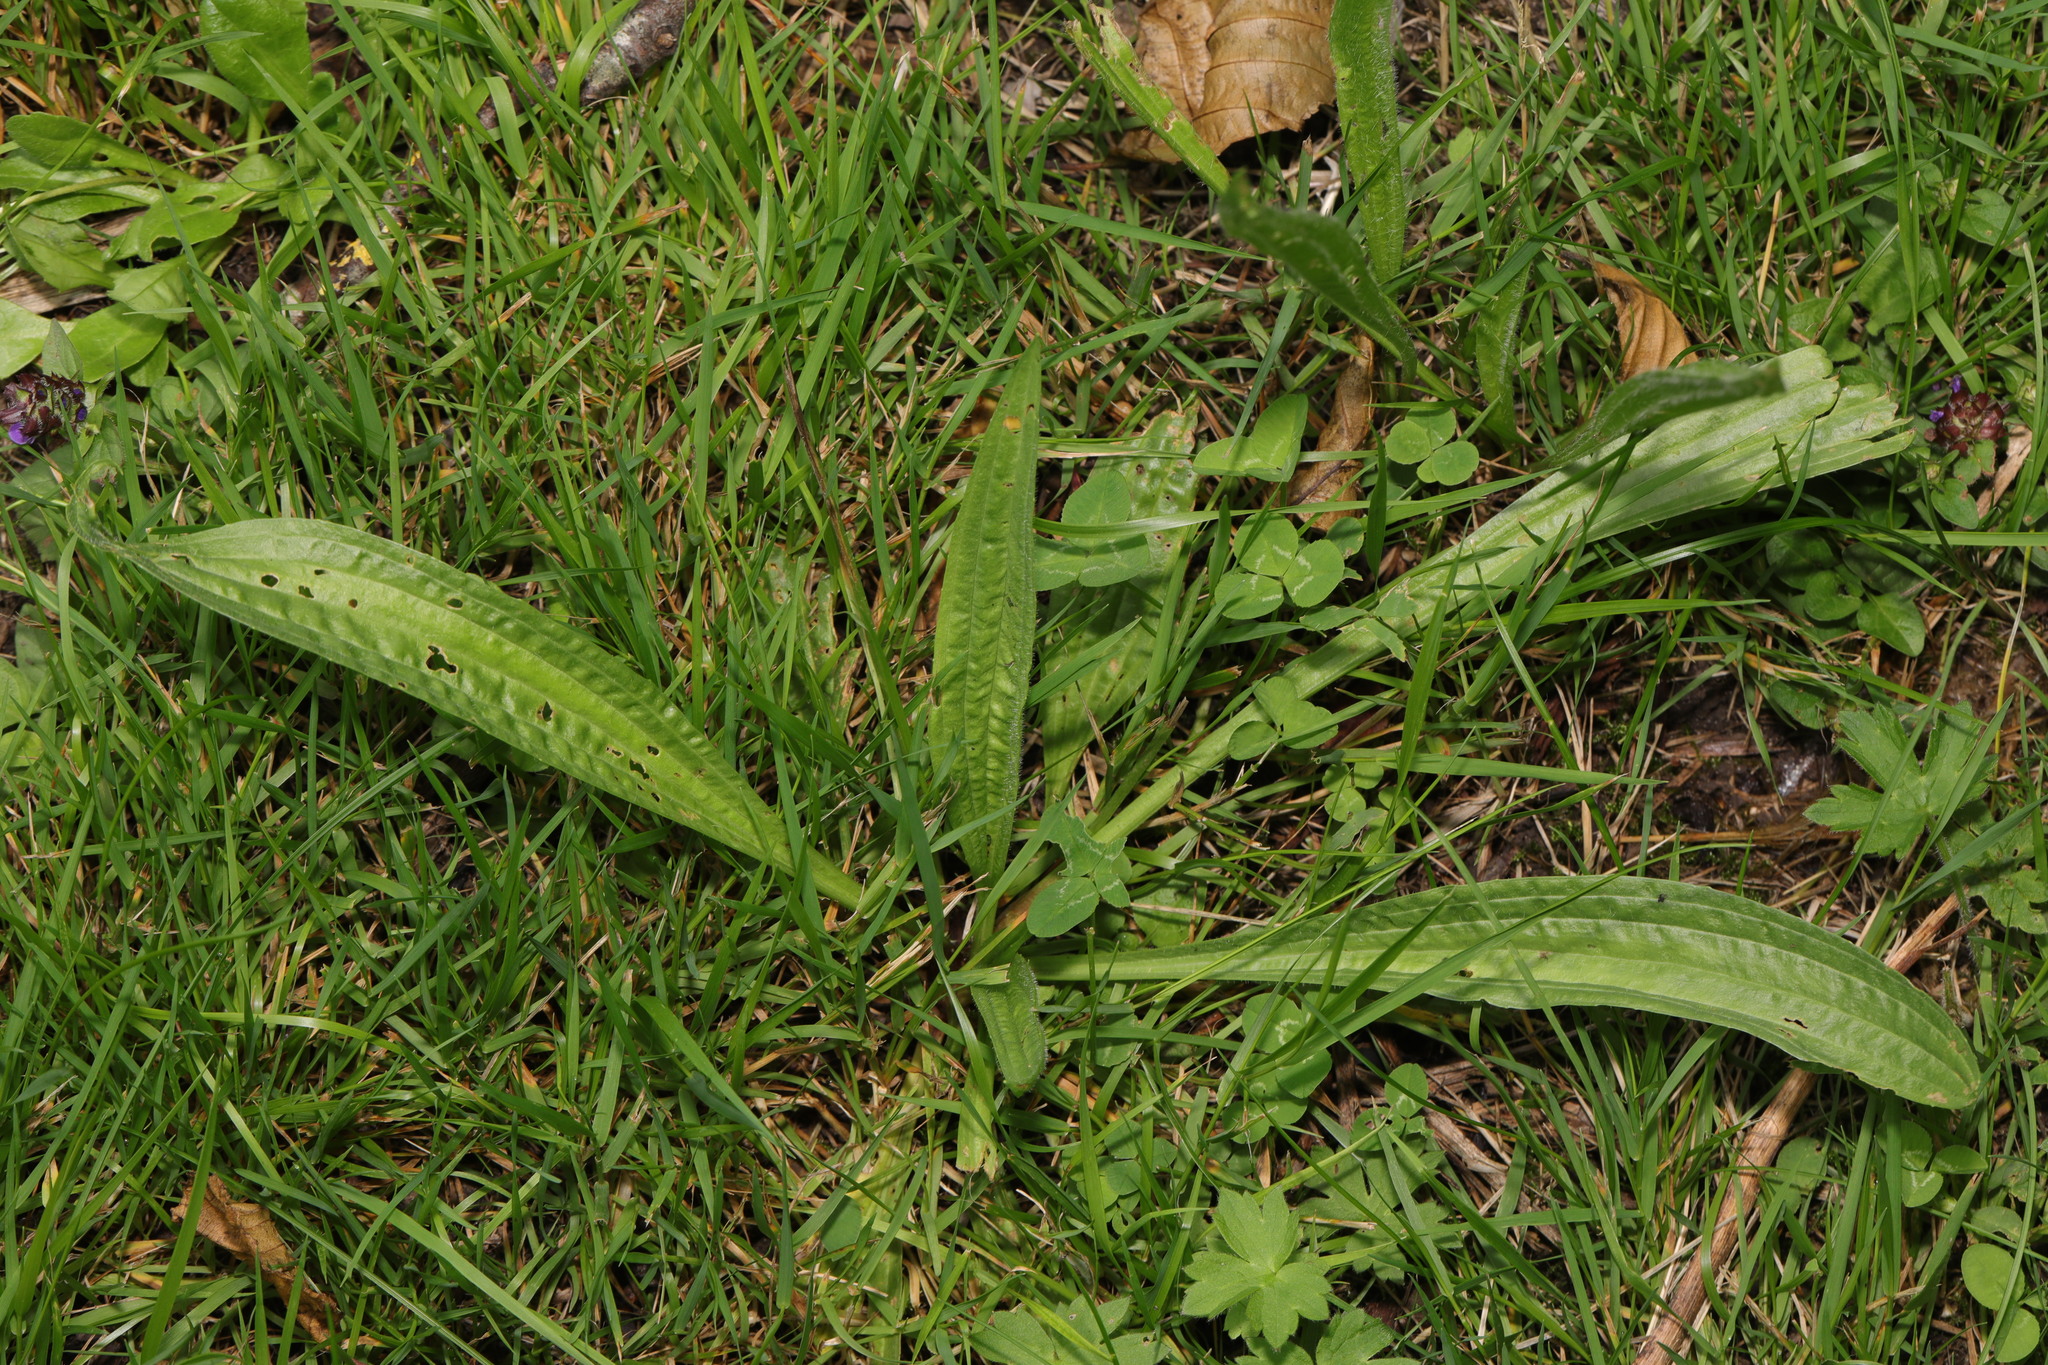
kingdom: Plantae
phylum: Tracheophyta
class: Magnoliopsida
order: Lamiales
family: Plantaginaceae
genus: Plantago
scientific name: Plantago lanceolata
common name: Ribwort plantain
